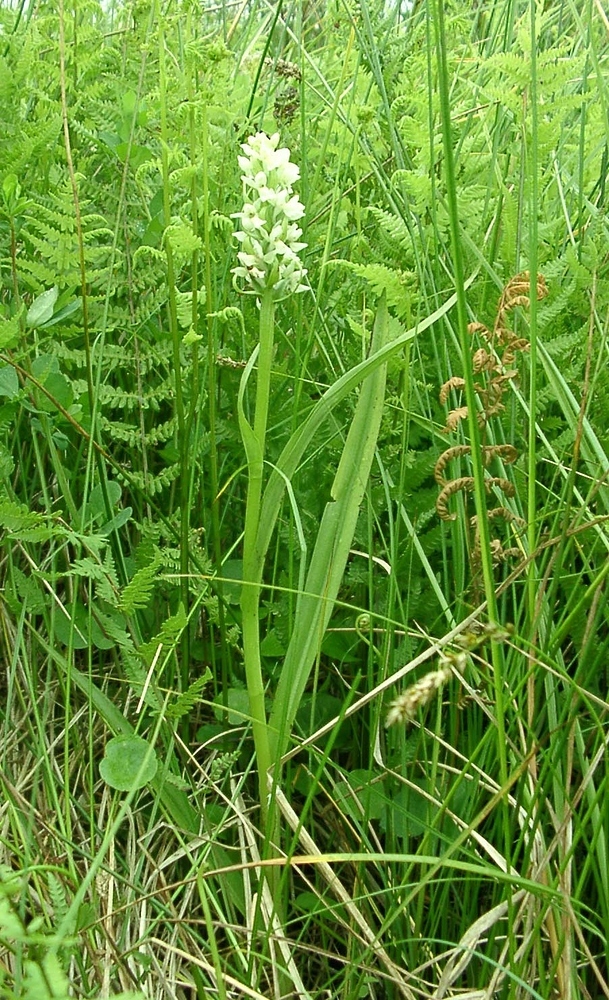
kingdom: Plantae
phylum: Tracheophyta
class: Liliopsida
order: Asparagales
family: Orchidaceae
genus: Dactylorhiza
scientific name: Dactylorhiza incarnata
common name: Early marsh-orchid
